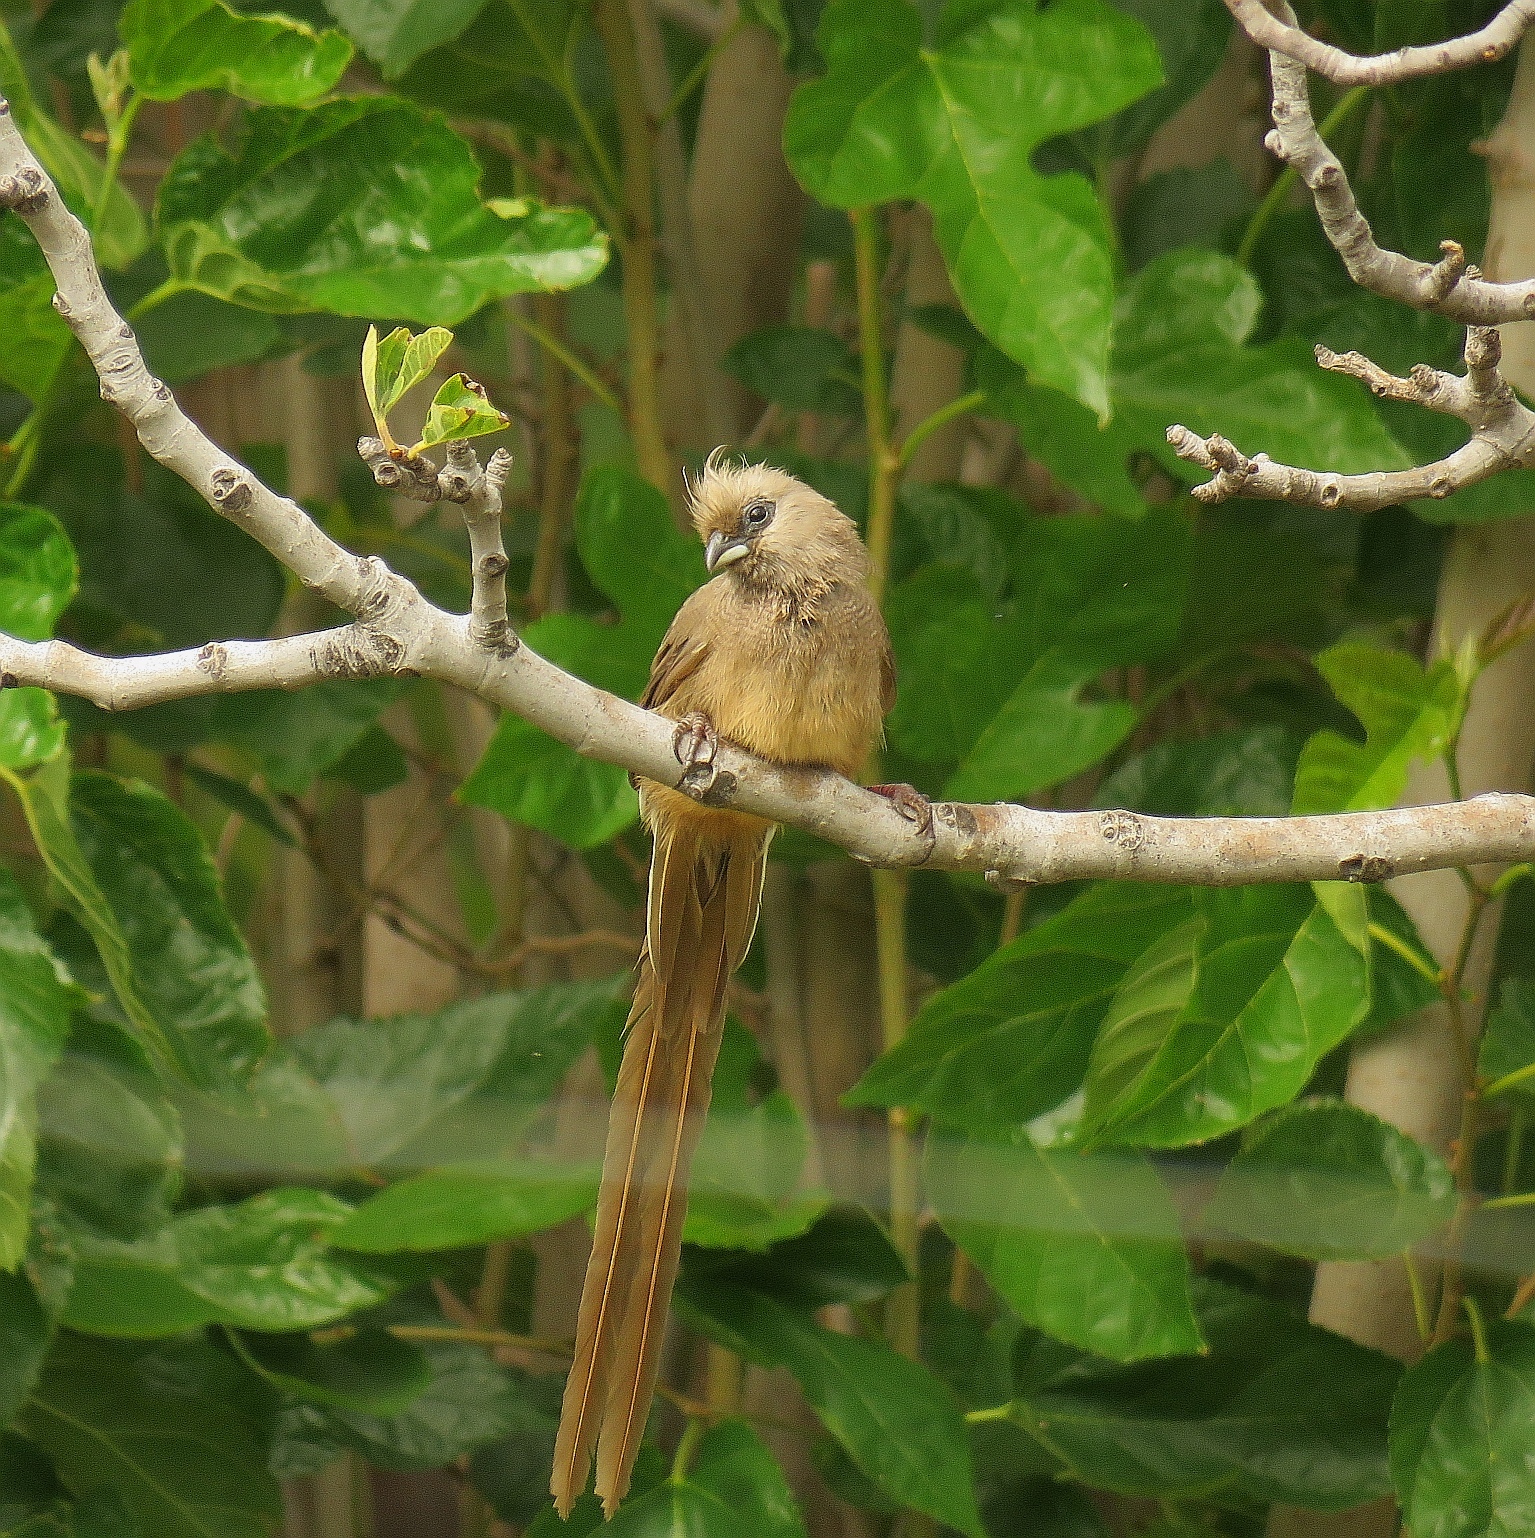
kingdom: Animalia
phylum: Chordata
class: Aves
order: Coliiformes
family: Coliidae
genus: Colius
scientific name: Colius striatus
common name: Speckled mousebird
